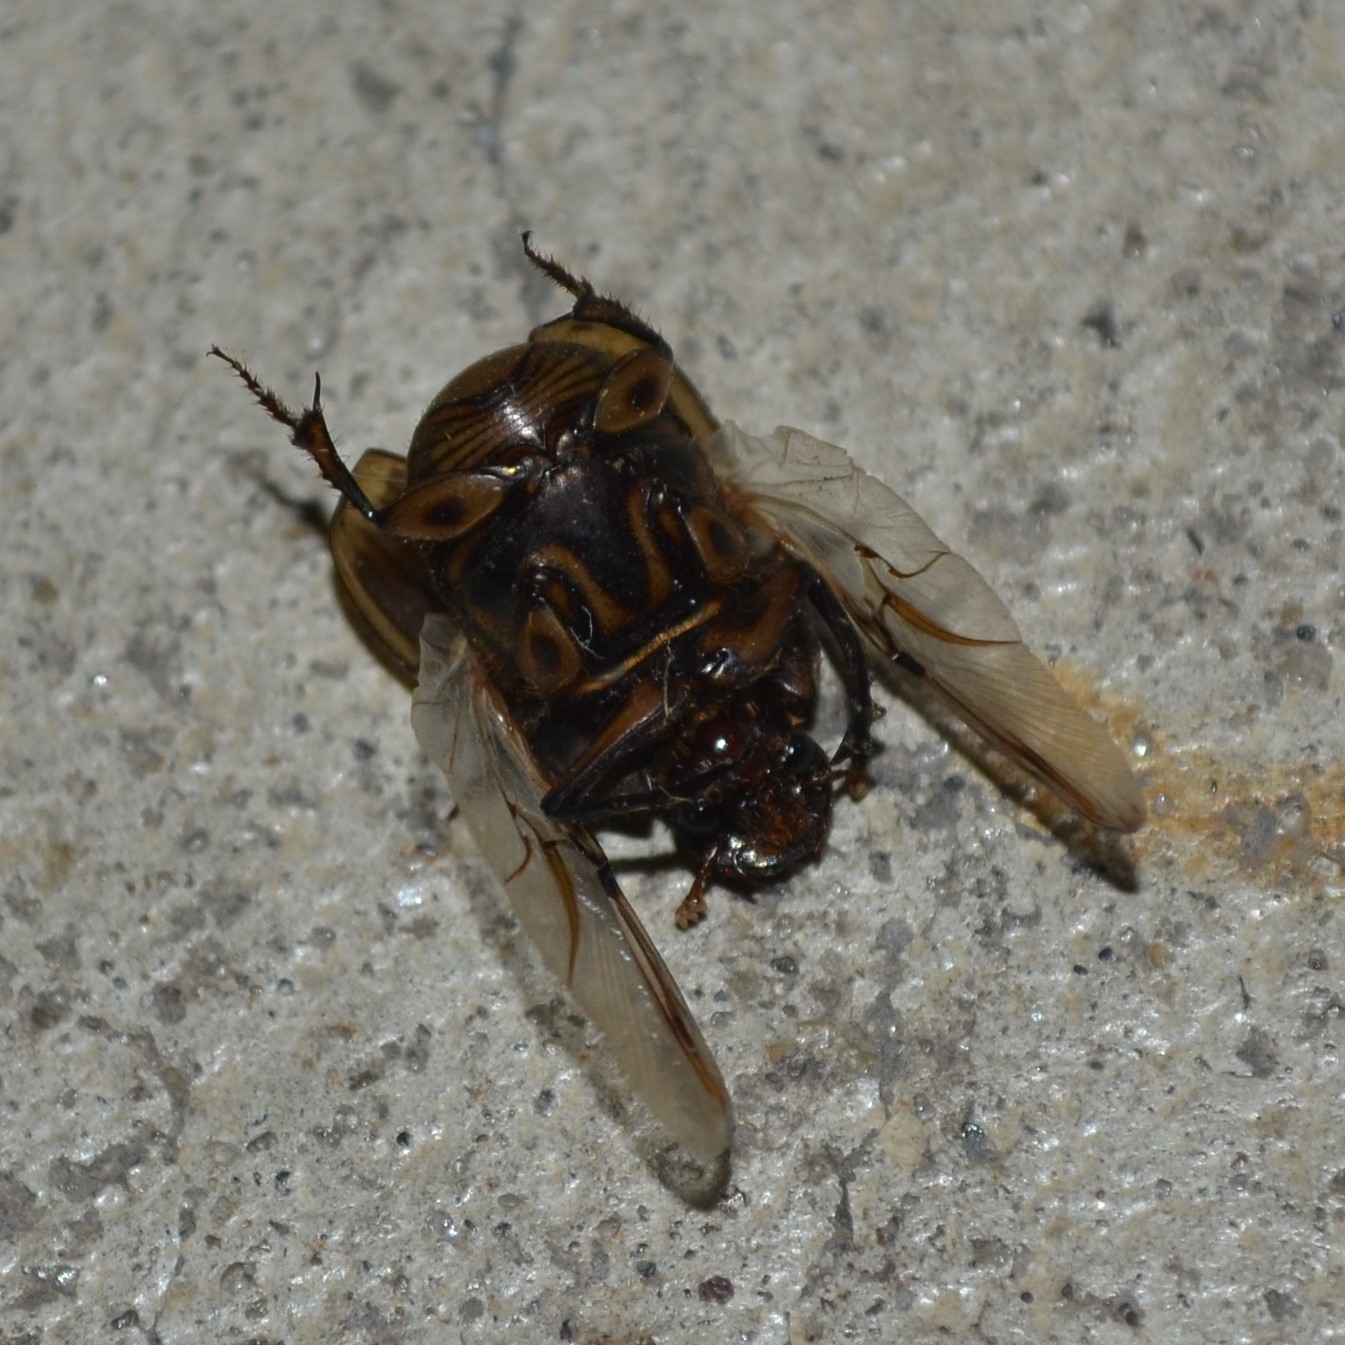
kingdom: Animalia
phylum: Arthropoda
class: Insecta
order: Coleoptera
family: Scarabaeidae
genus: Digitonthophagus
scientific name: Digitonthophagus gazella
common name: Brown dung beetle
